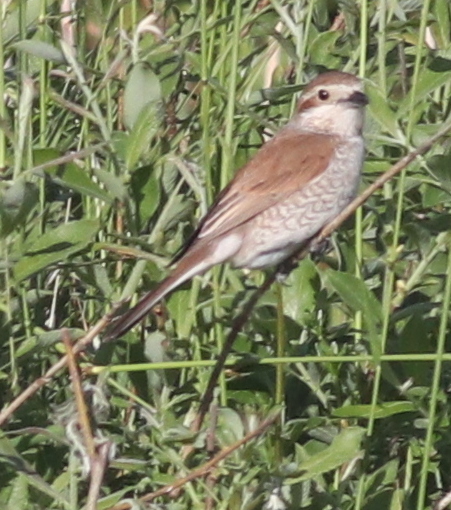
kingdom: Animalia
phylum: Chordata
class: Aves
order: Passeriformes
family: Laniidae
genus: Lanius
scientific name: Lanius collurio
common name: Red-backed shrike
